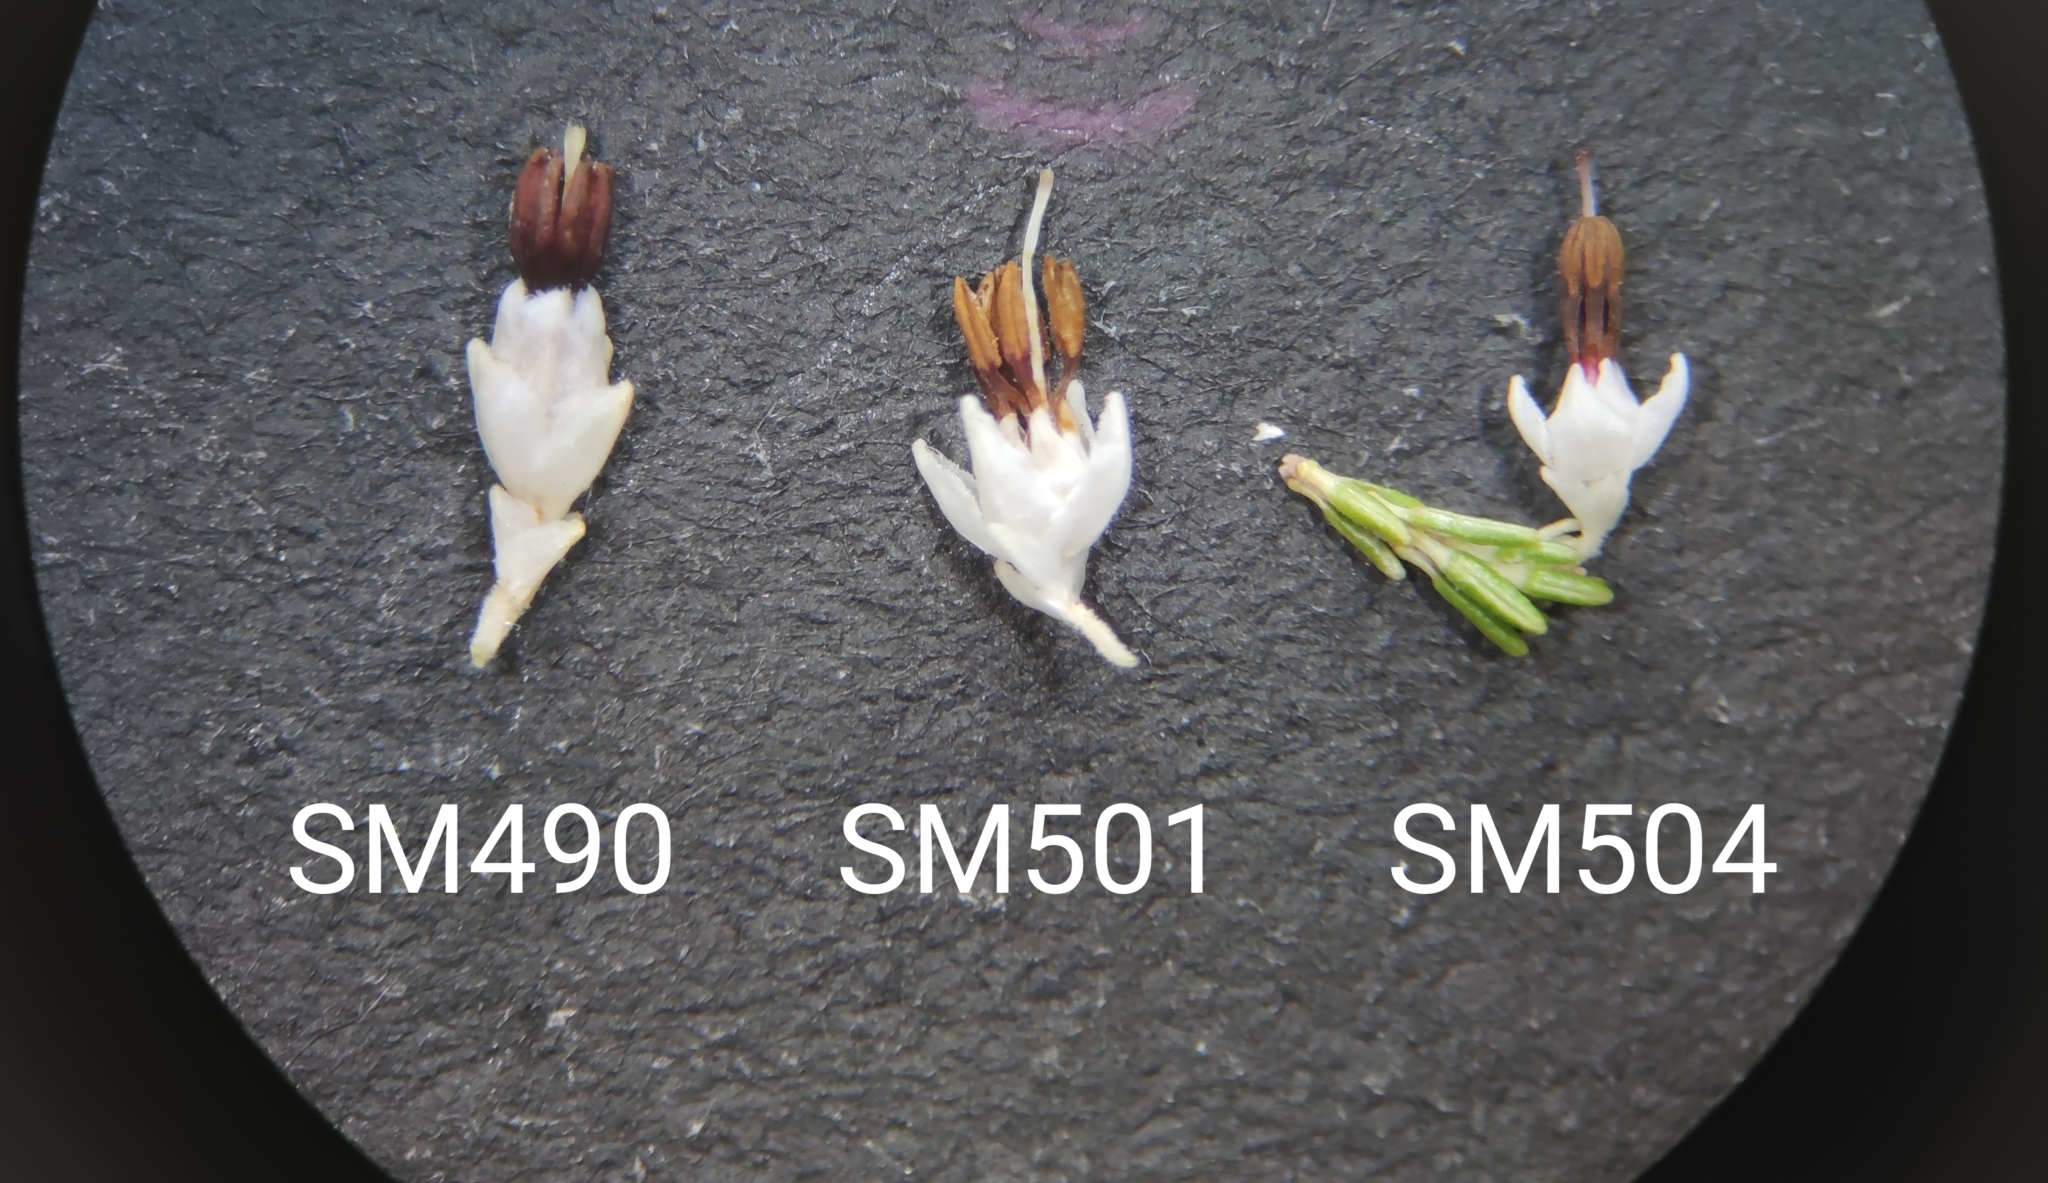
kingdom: Plantae
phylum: Tracheophyta
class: Magnoliopsida
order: Ericales
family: Ericaceae
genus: Erica
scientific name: Erica imbricata
